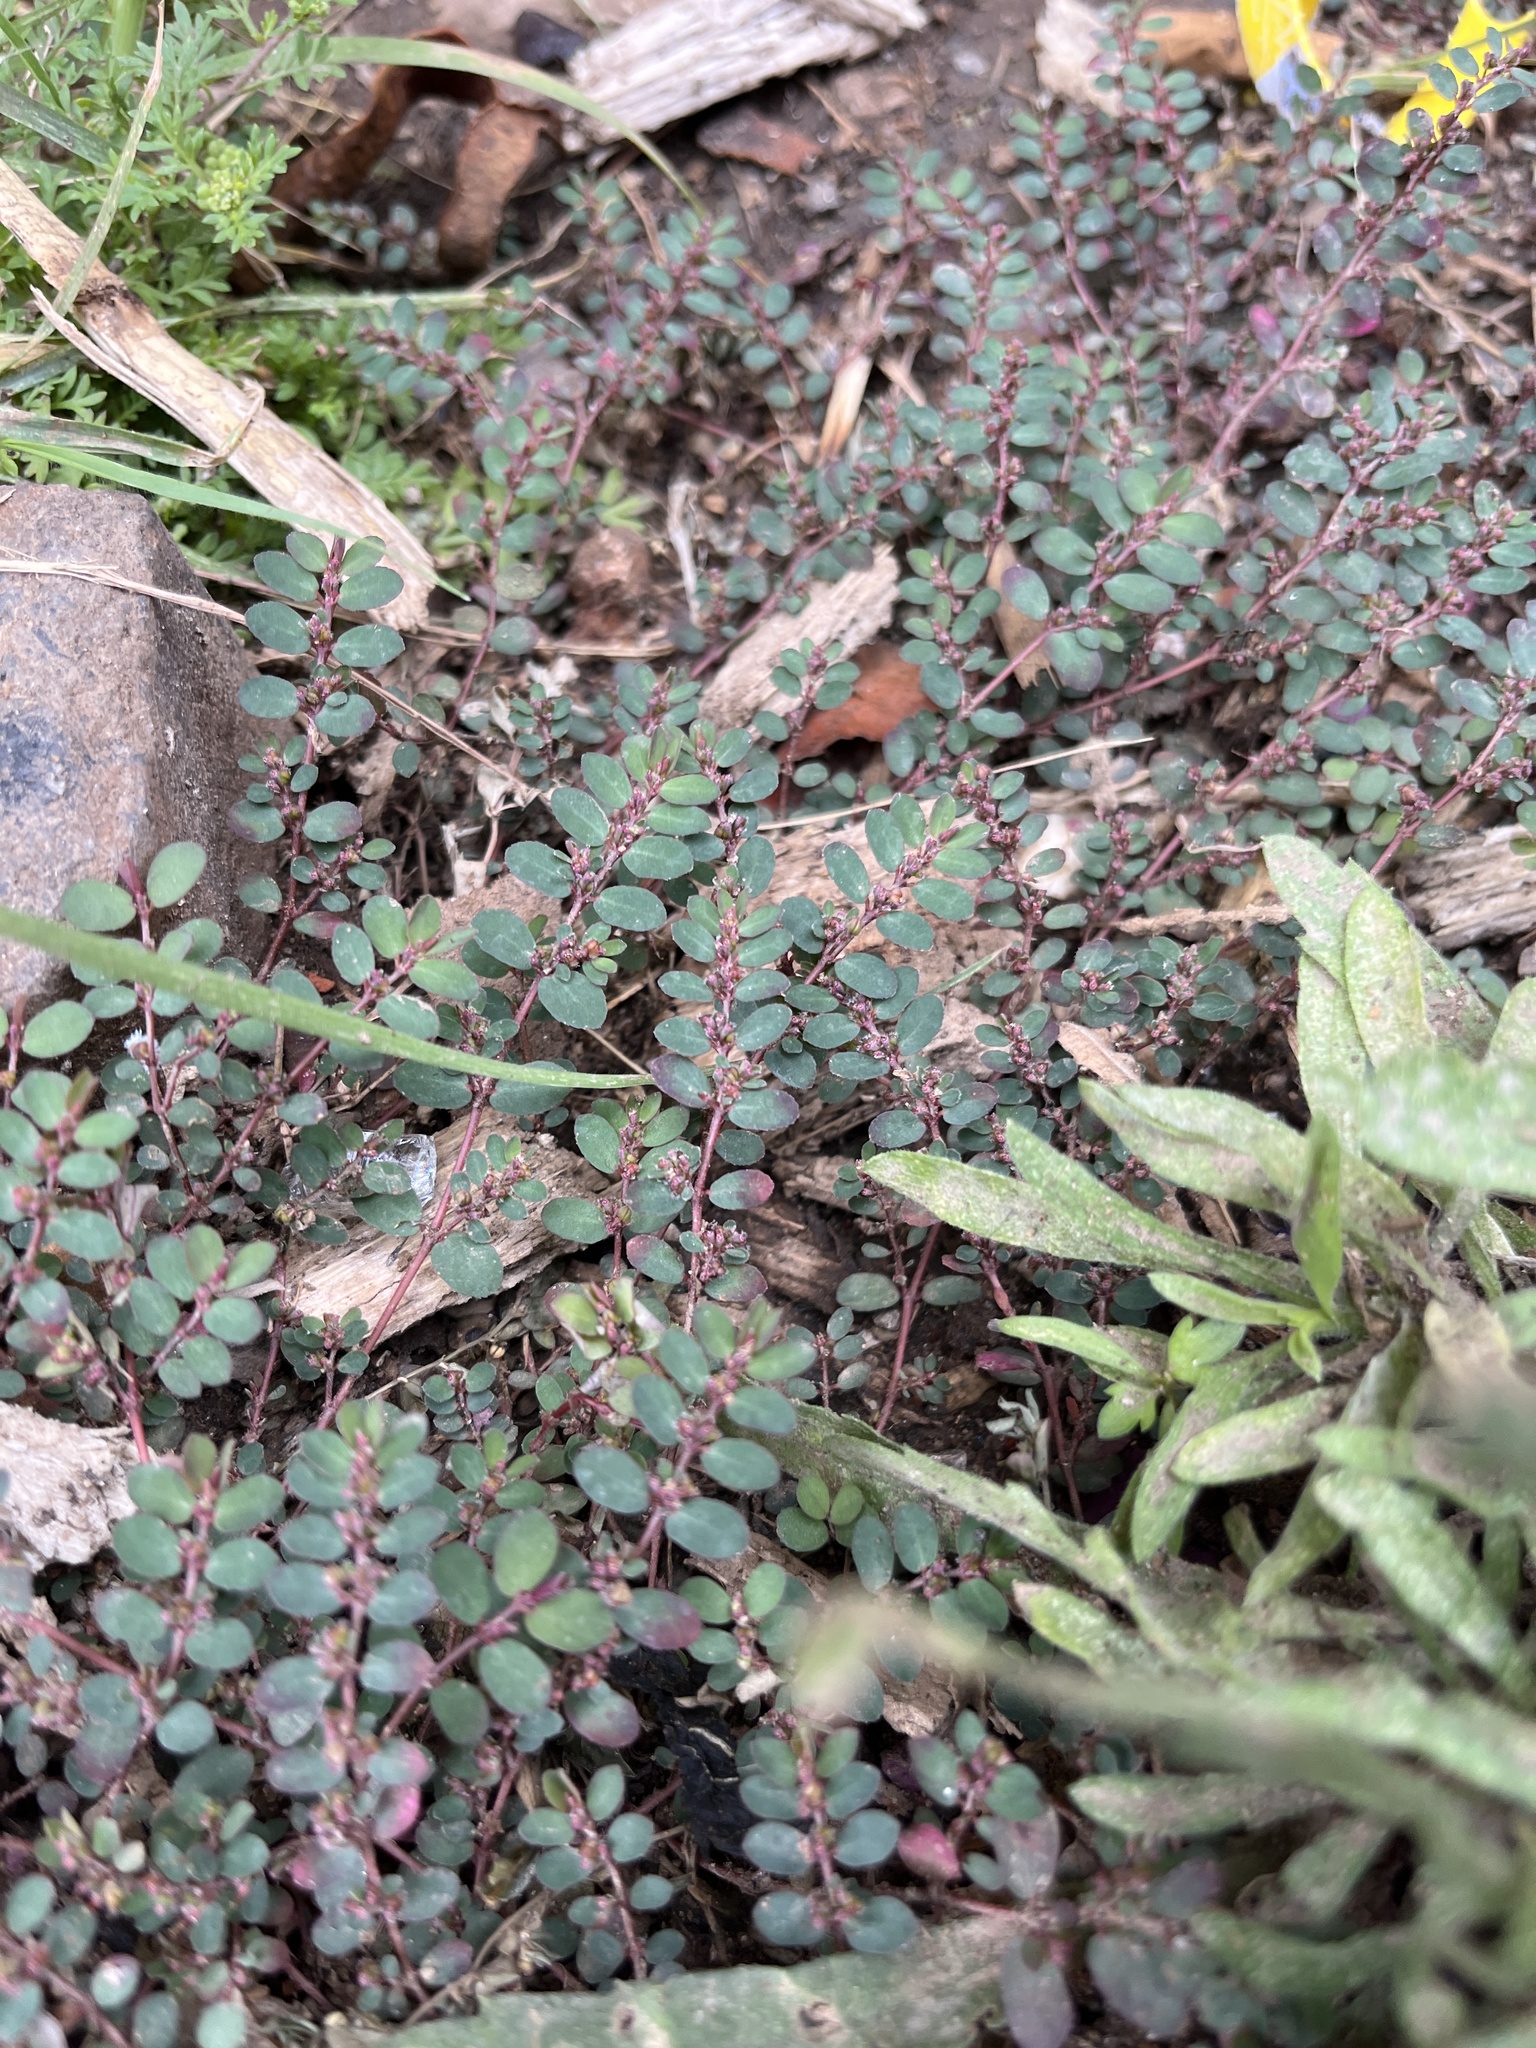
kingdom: Plantae
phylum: Tracheophyta
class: Magnoliopsida
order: Malpighiales
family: Euphorbiaceae
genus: Euphorbia
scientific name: Euphorbia prostrata
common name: Prostrate sandmat
